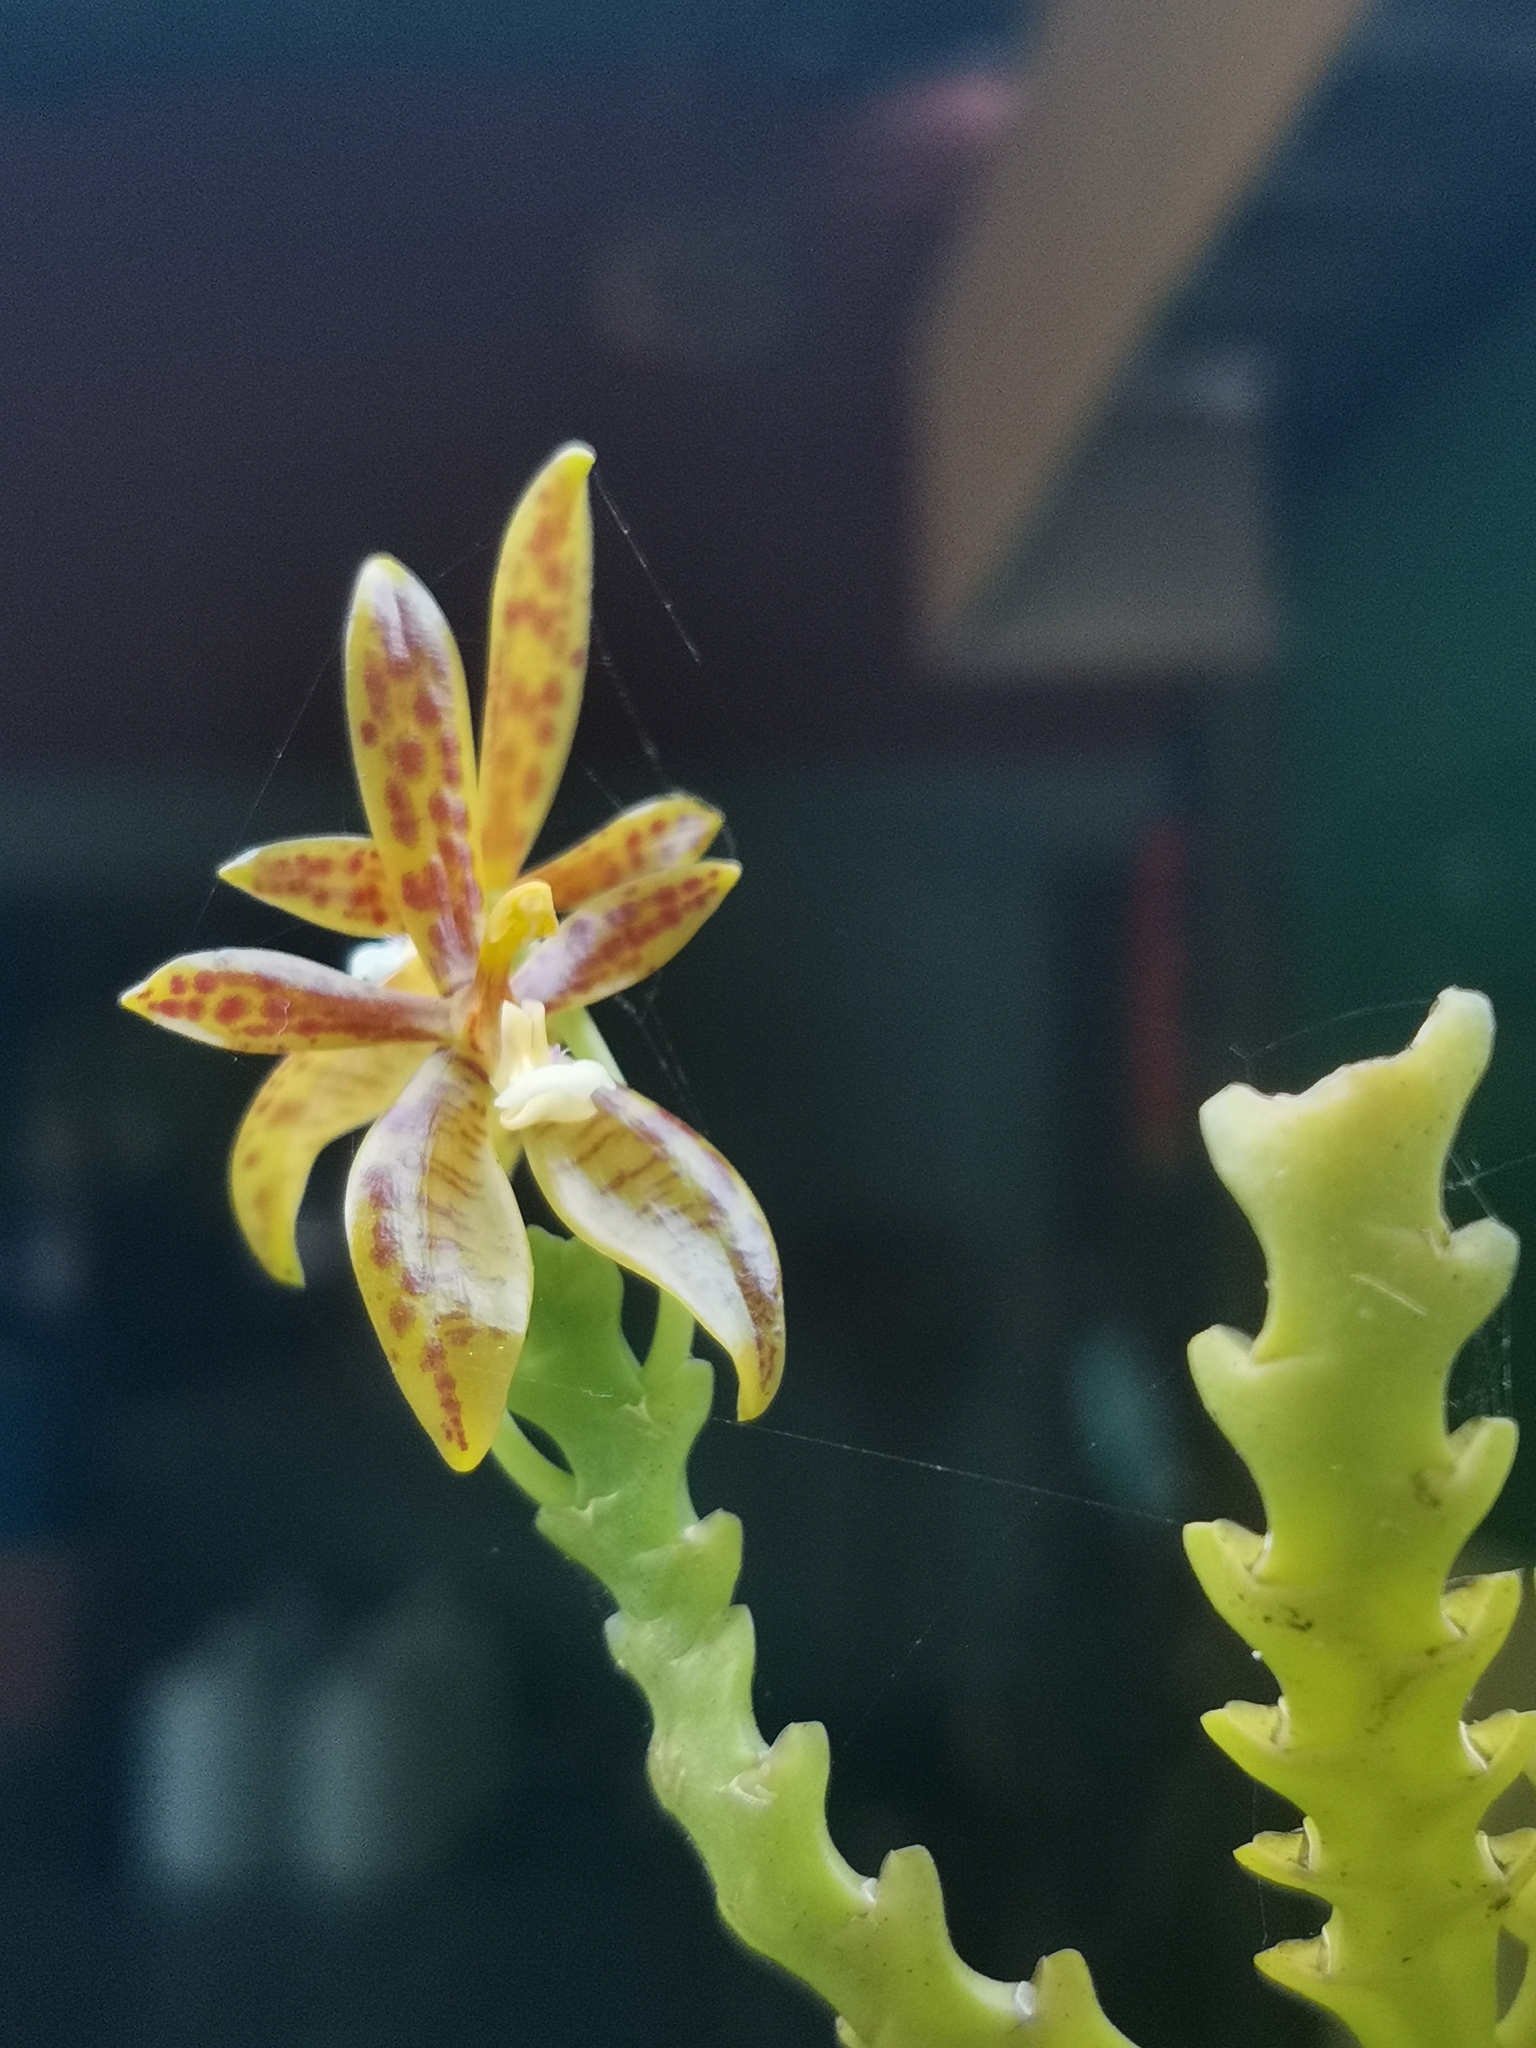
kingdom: Plantae
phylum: Tracheophyta
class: Liliopsida
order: Asparagales
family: Orchidaceae
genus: Phalaenopsis
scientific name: Phalaenopsis cornu-cervi
